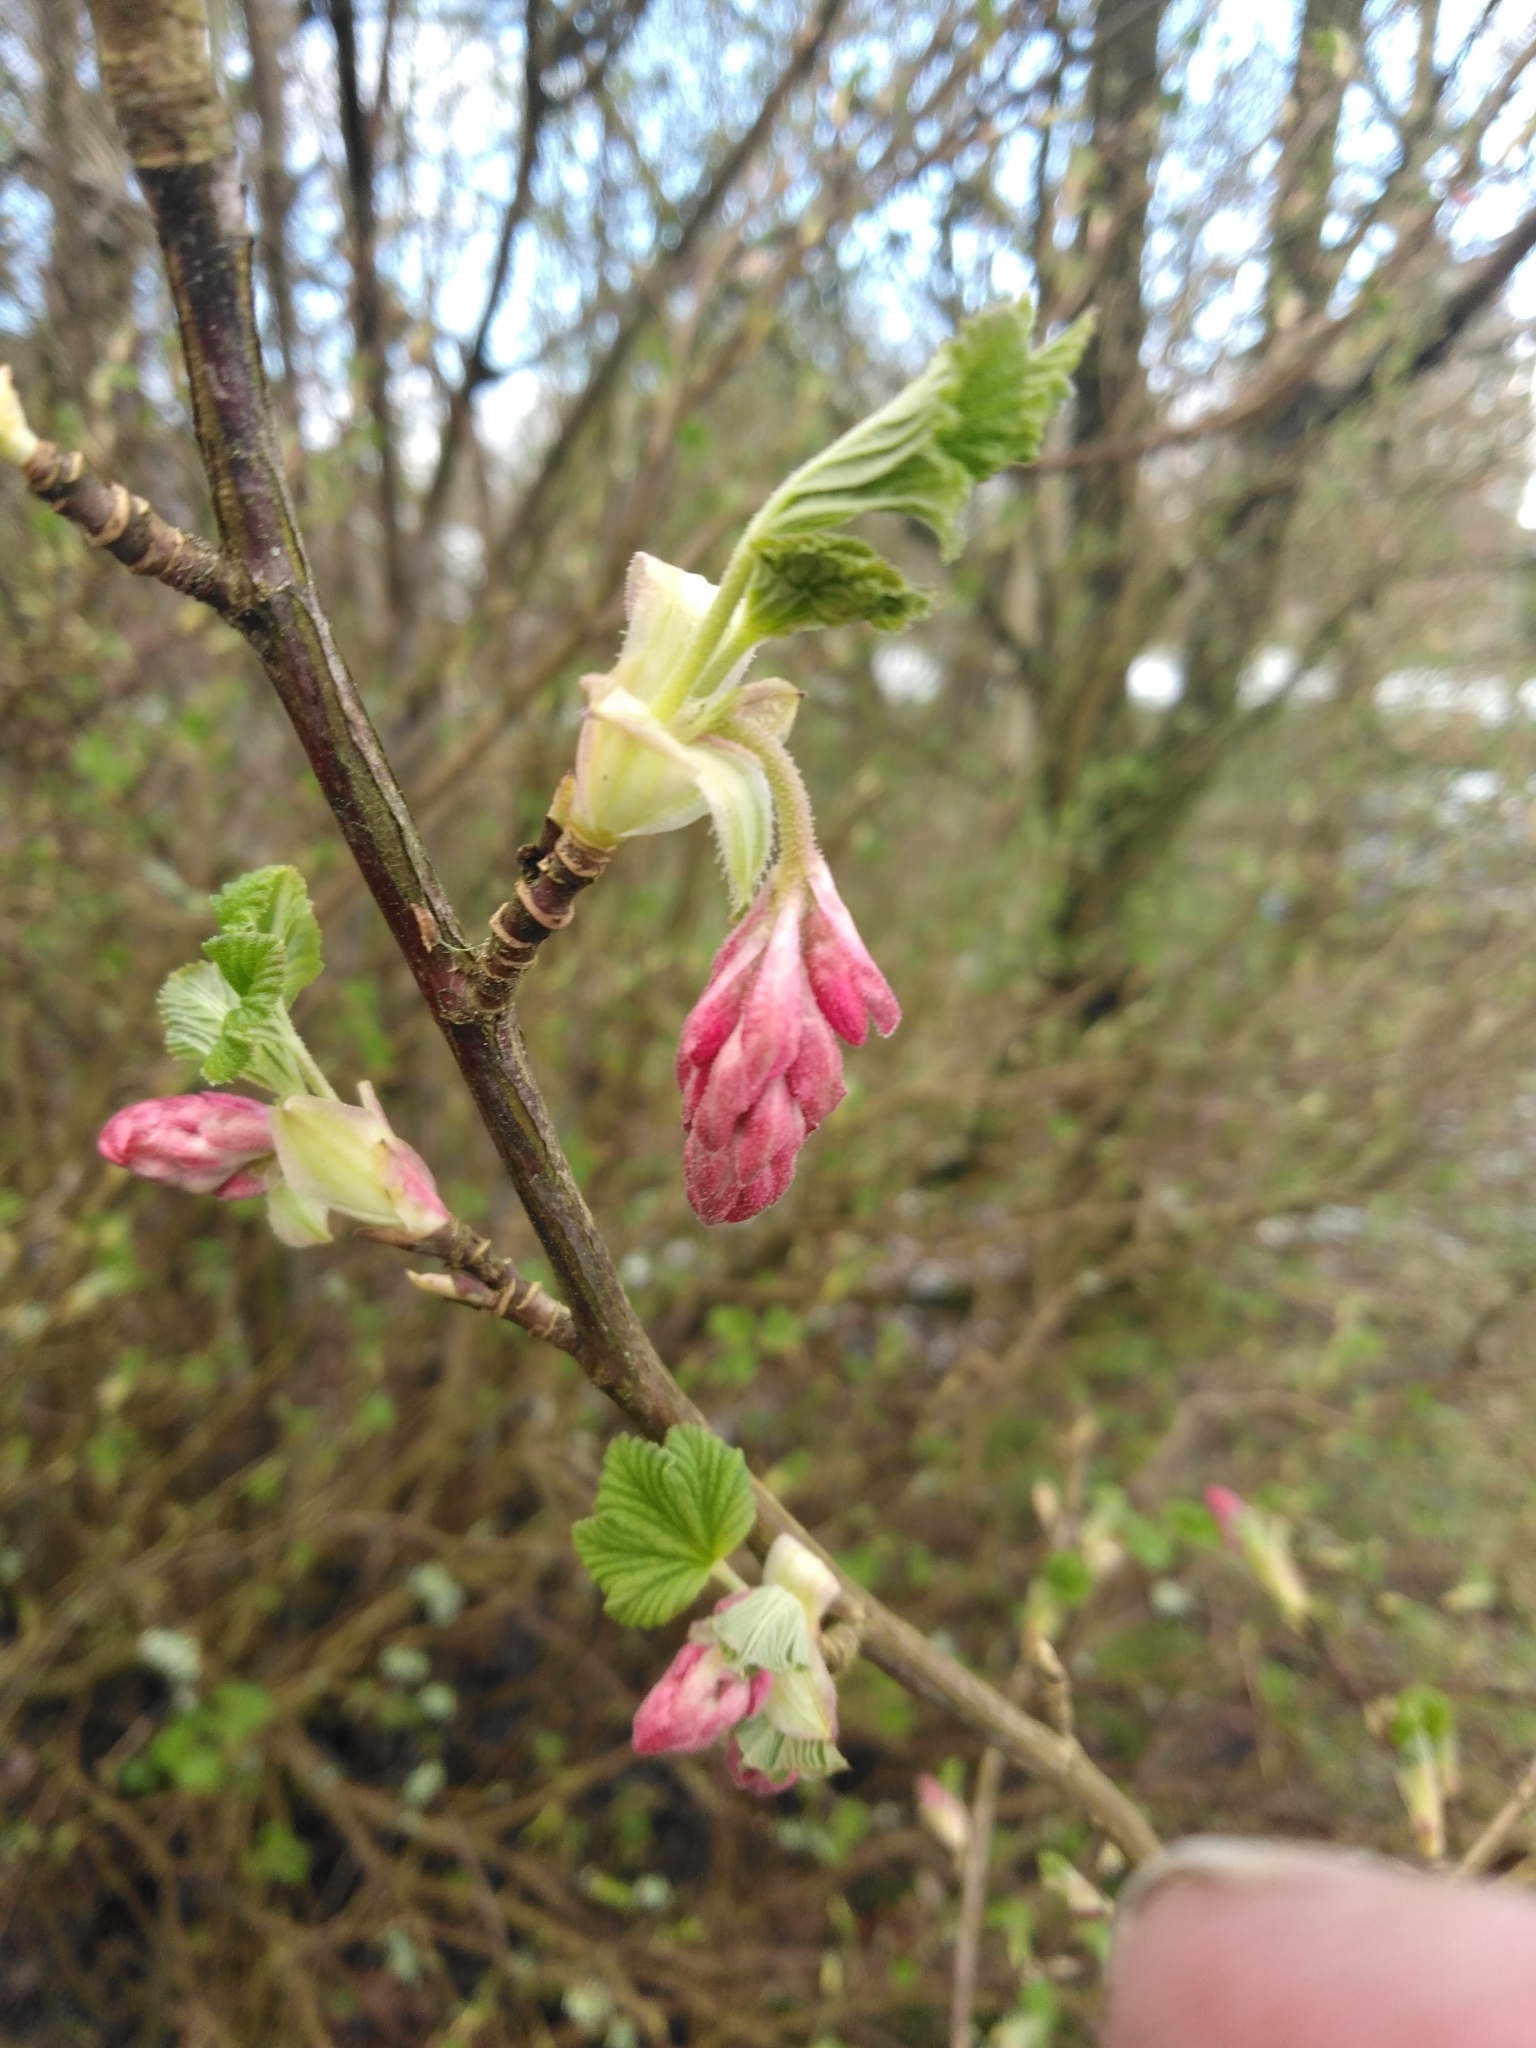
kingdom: Plantae
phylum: Tracheophyta
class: Magnoliopsida
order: Saxifragales
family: Grossulariaceae
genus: Ribes
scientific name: Ribes sanguineum
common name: Flowering currant
